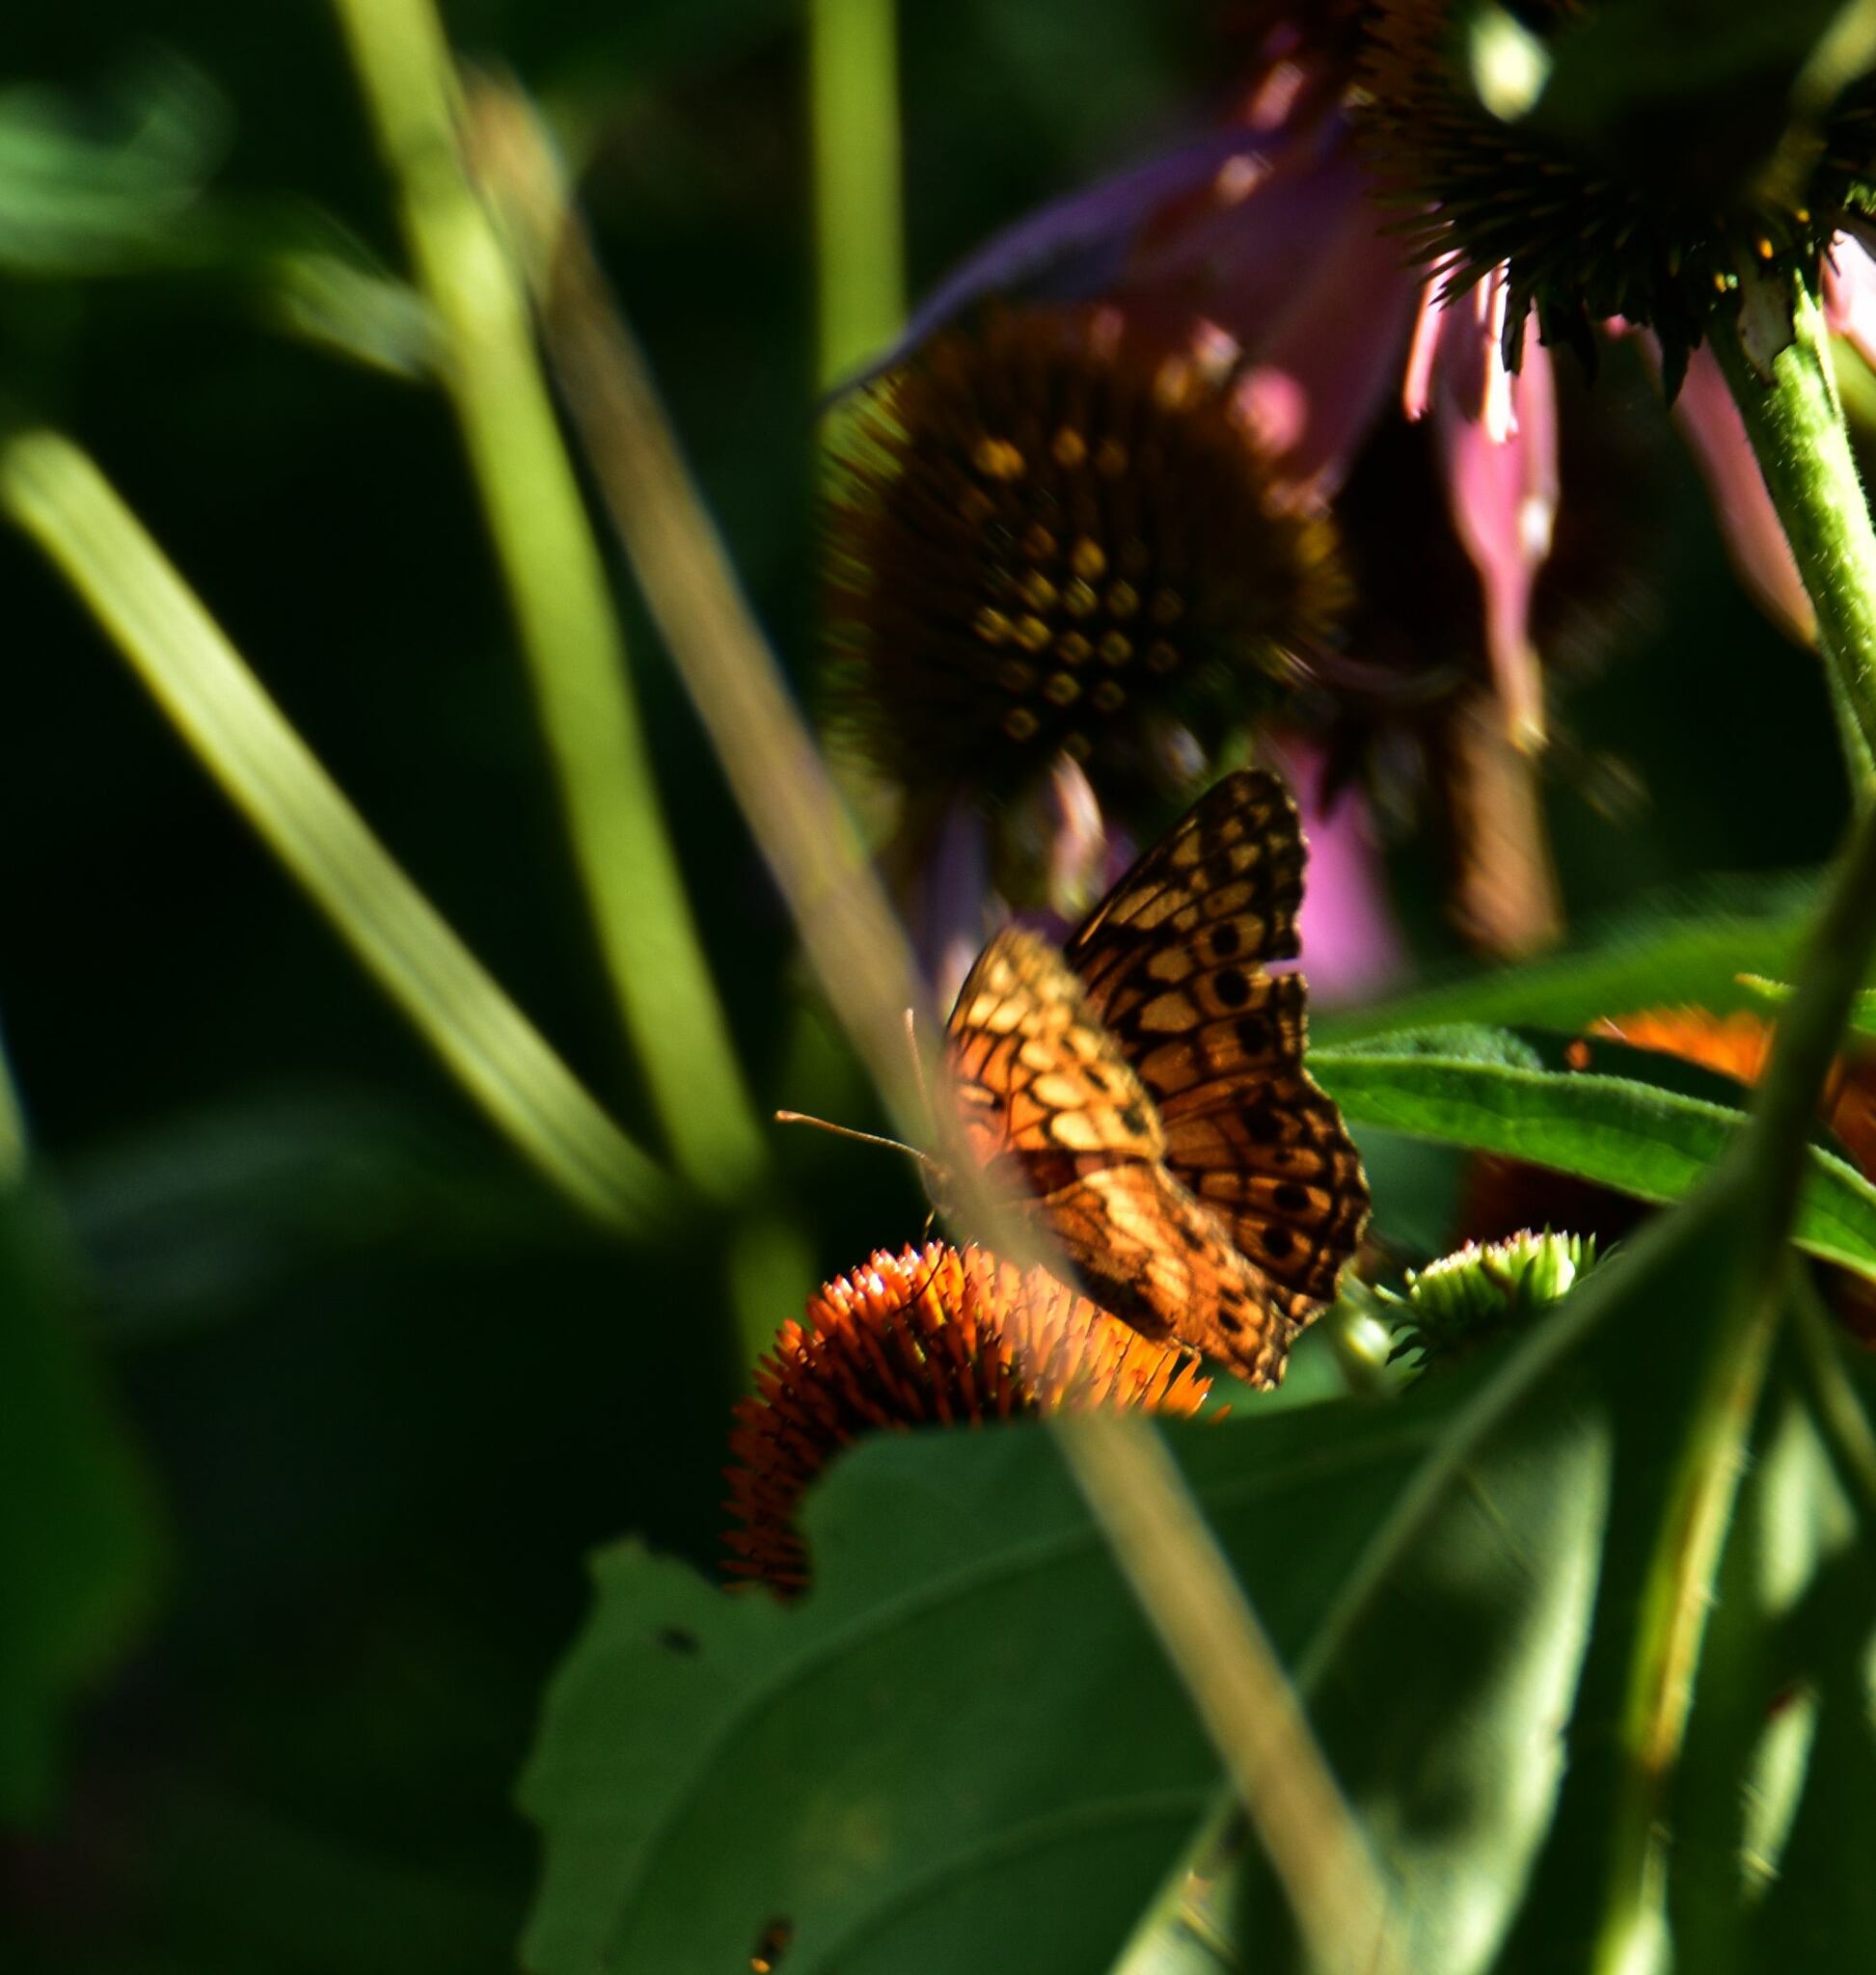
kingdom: Animalia
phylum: Arthropoda
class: Insecta
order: Lepidoptera
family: Nymphalidae
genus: Euptoieta
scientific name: Euptoieta claudia
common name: Variegated fritillary
